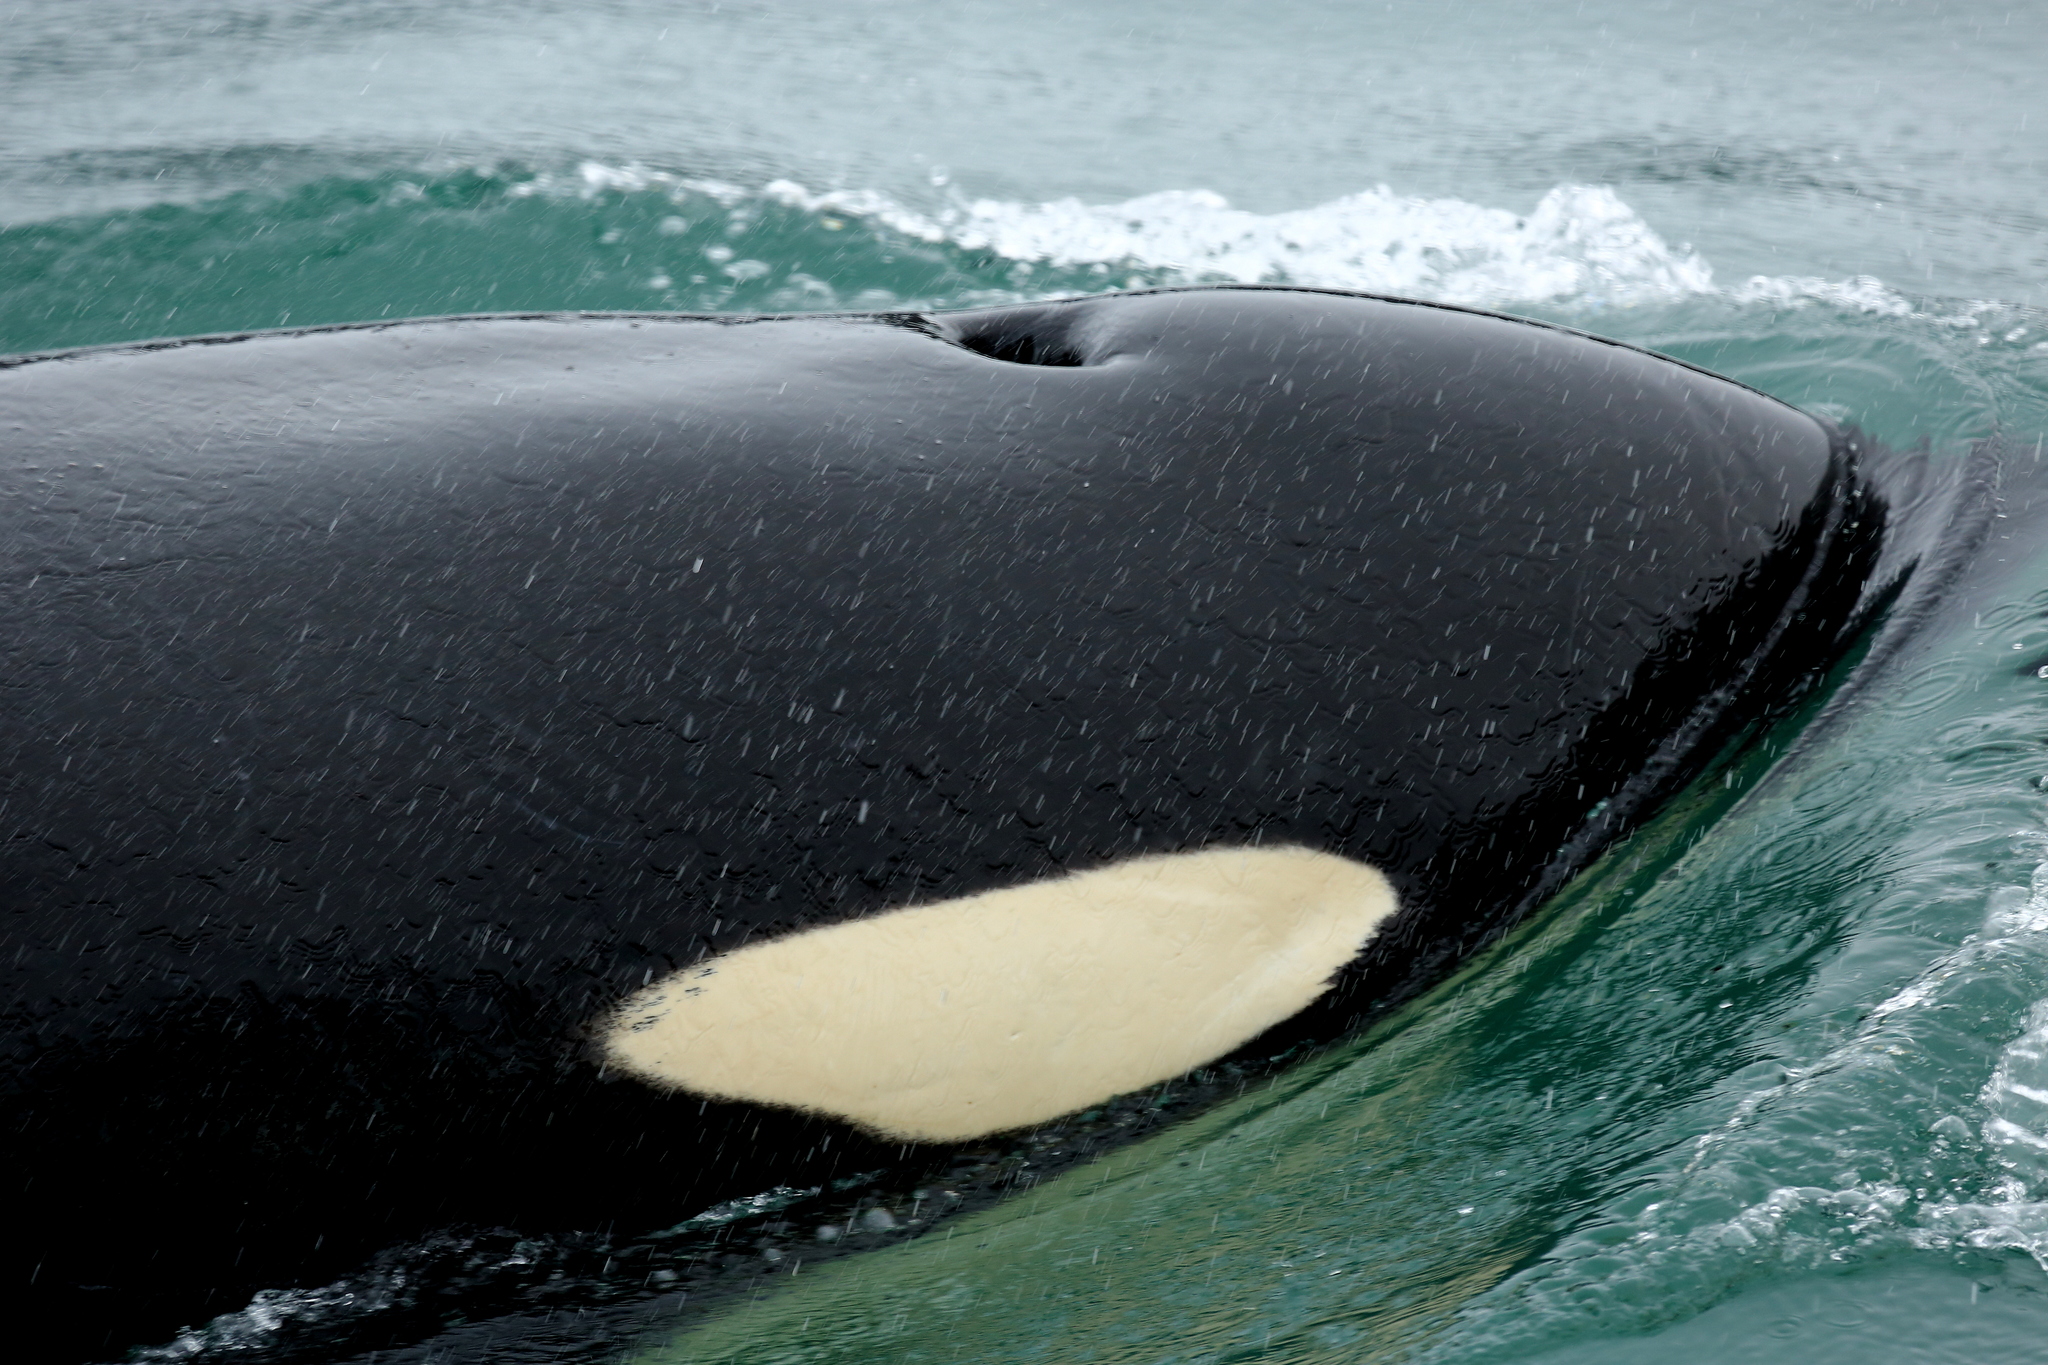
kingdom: Animalia
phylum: Chordata
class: Mammalia
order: Cetacea
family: Delphinidae
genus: Orcinus
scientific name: Orcinus orca
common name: Killer whale
